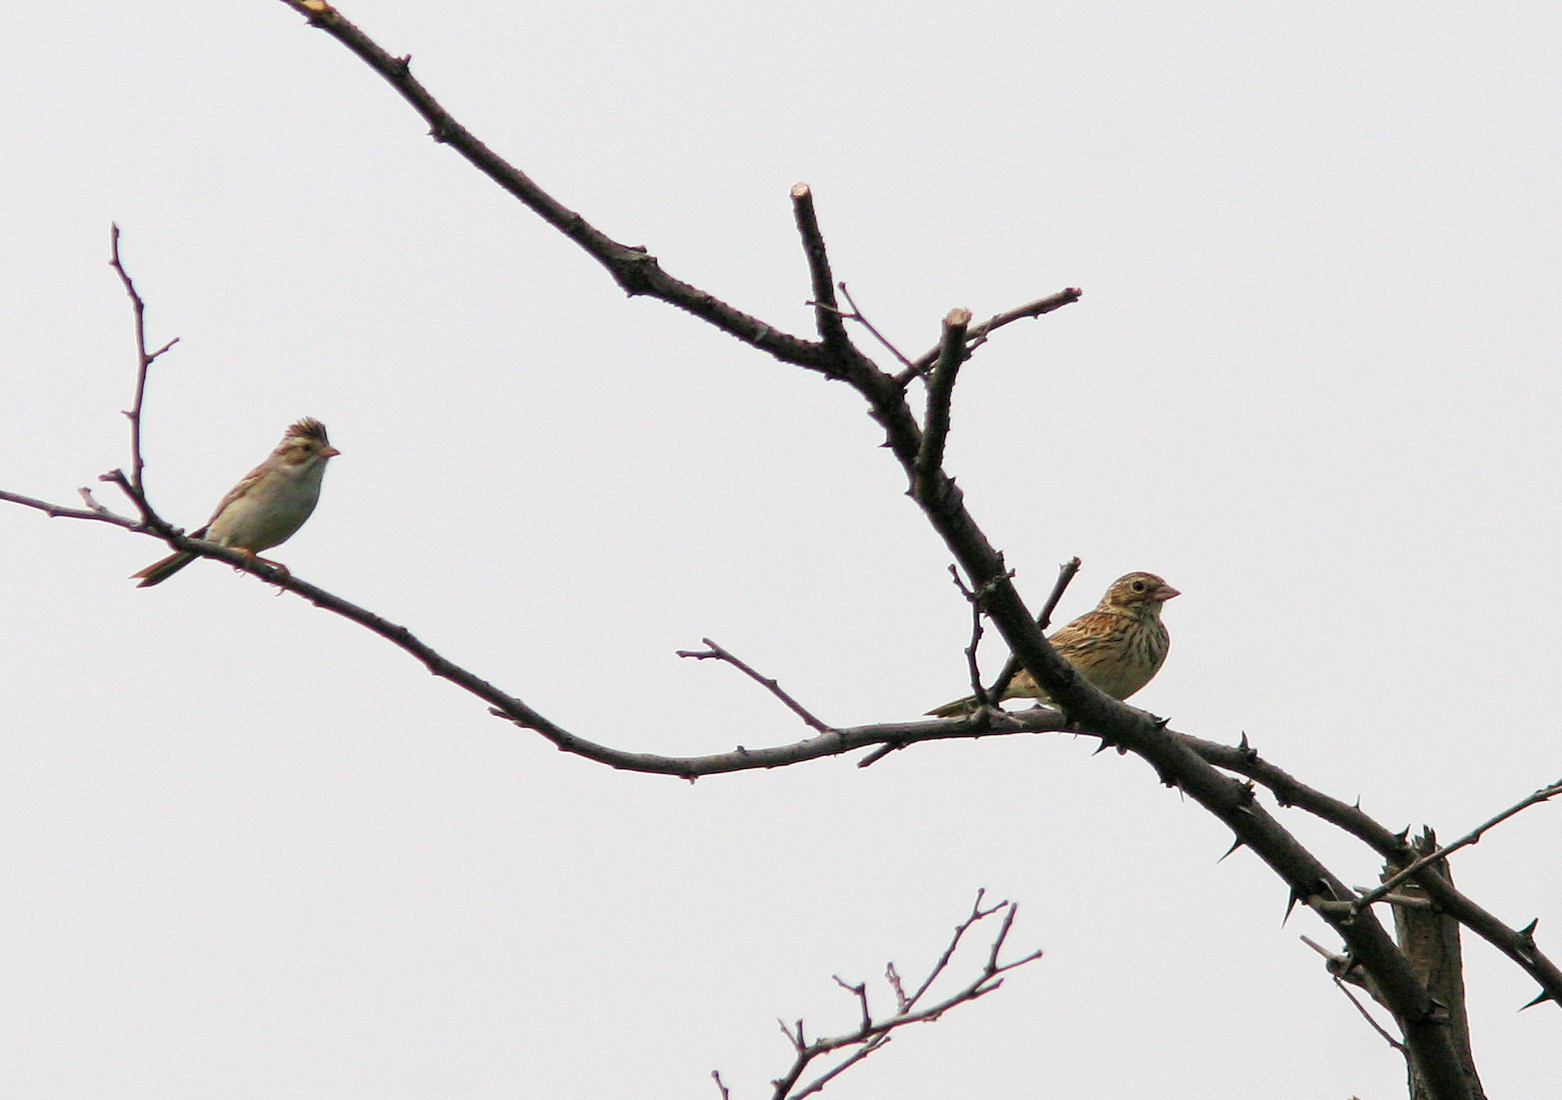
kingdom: Animalia
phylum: Chordata
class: Aves
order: Passeriformes
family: Passerellidae
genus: Spizella
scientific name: Spizella pallida
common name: Clay-colored sparrow
